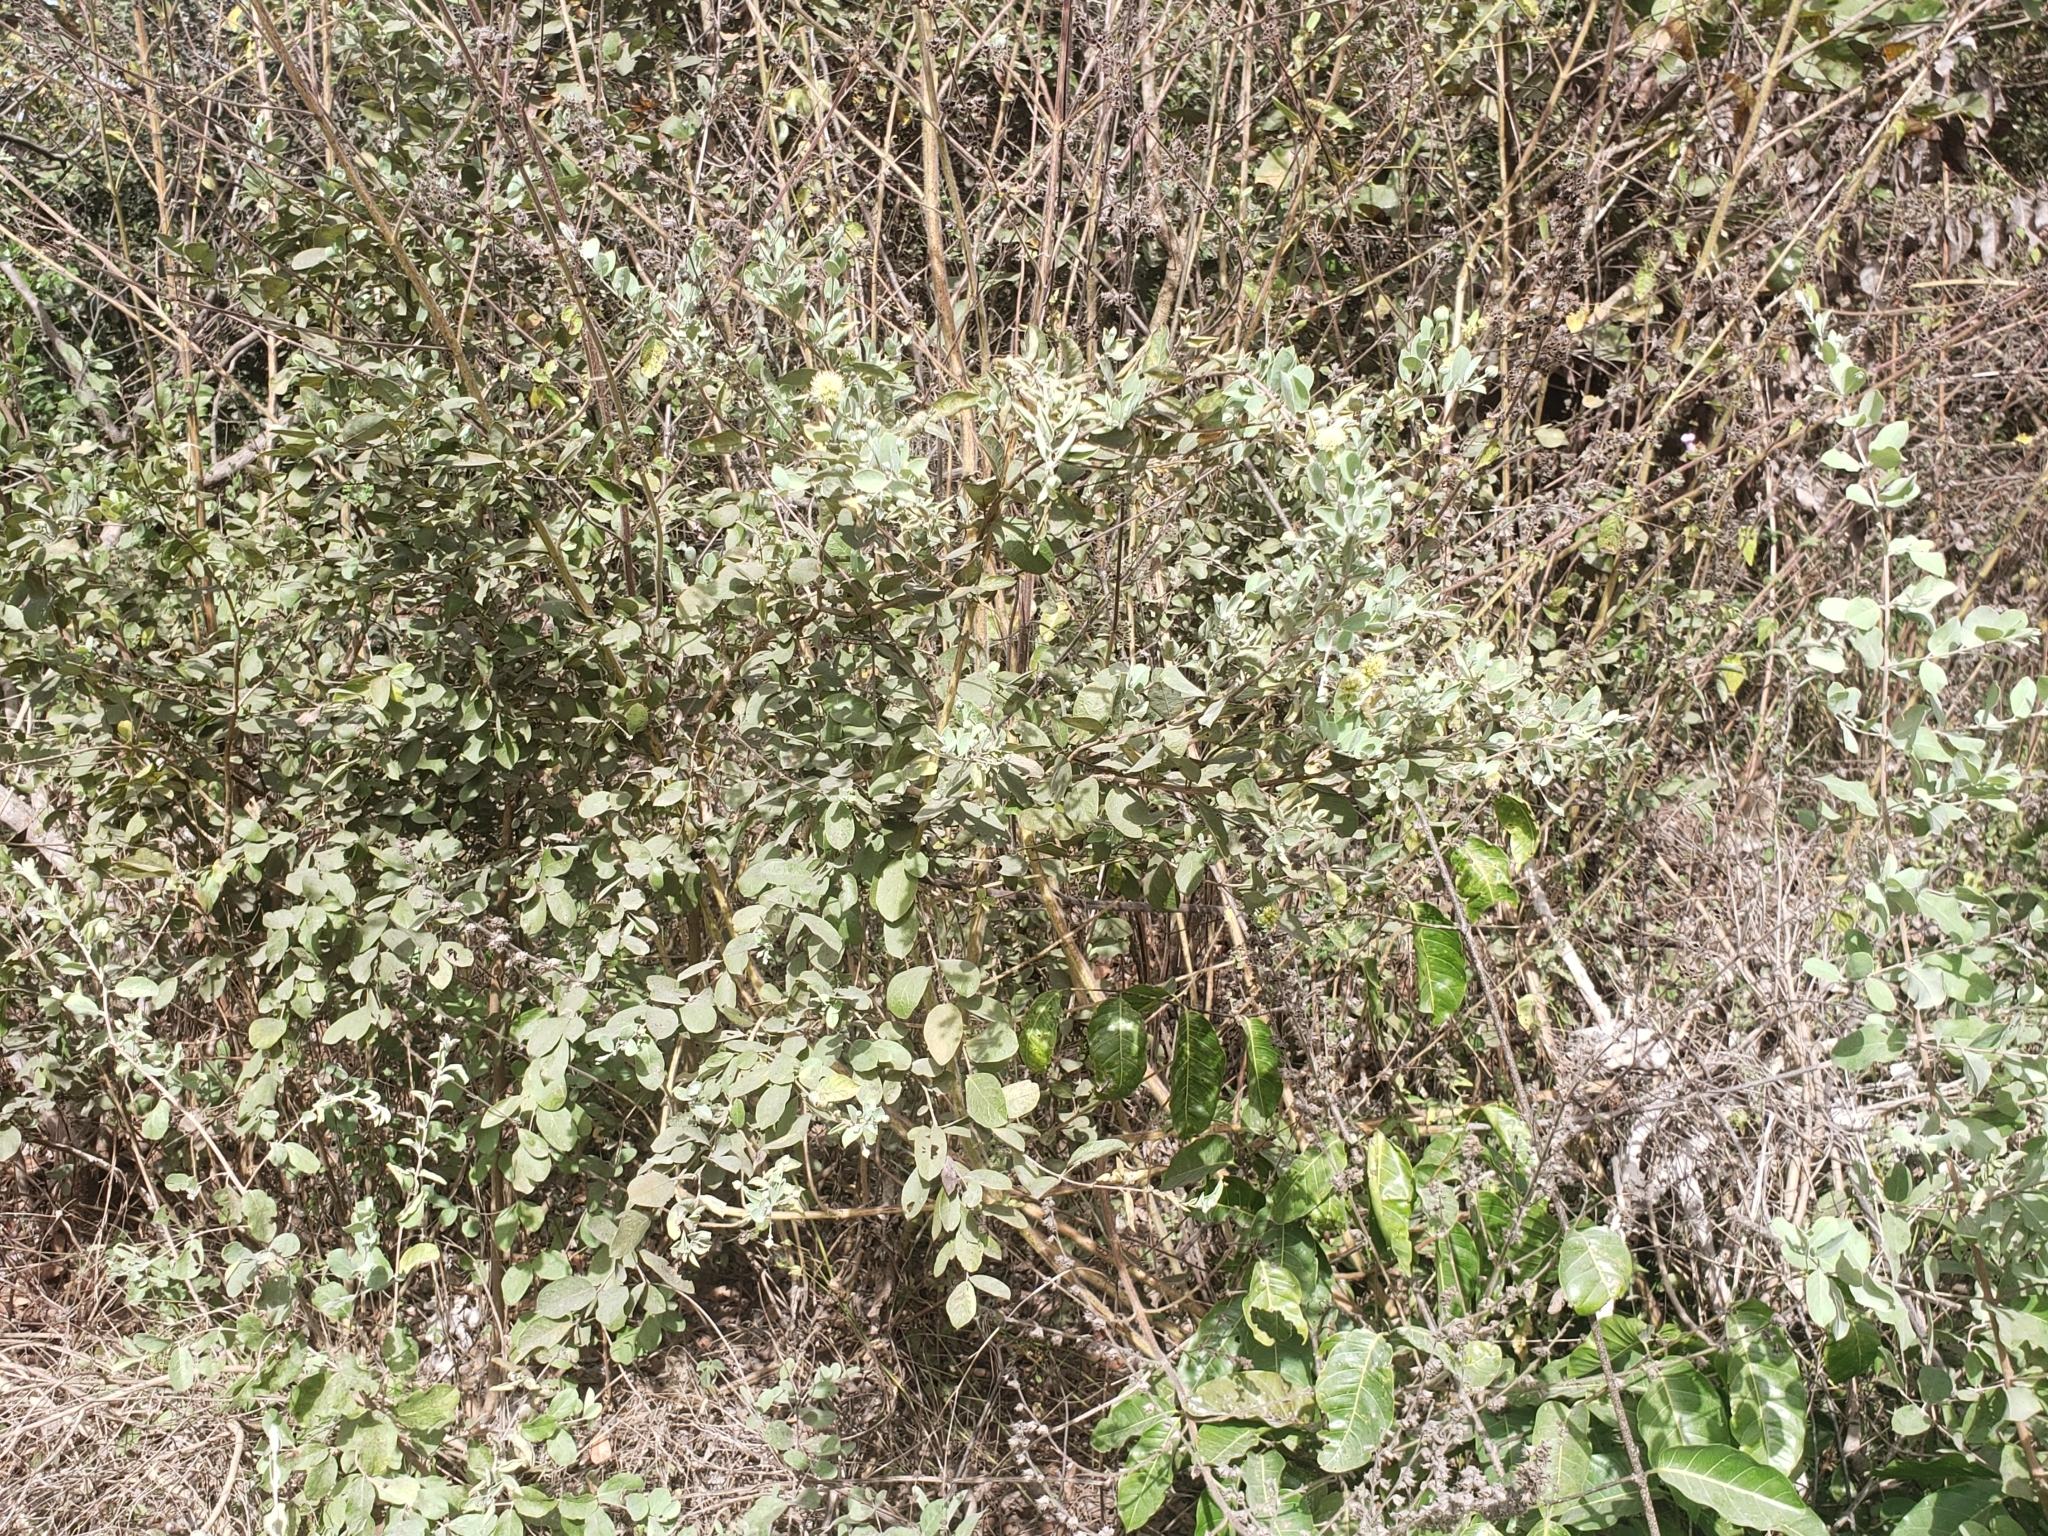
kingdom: Plantae
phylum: Tracheophyta
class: Magnoliopsida
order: Myrtales
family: Combretaceae
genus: Guiera
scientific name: Guiera senegalensis
